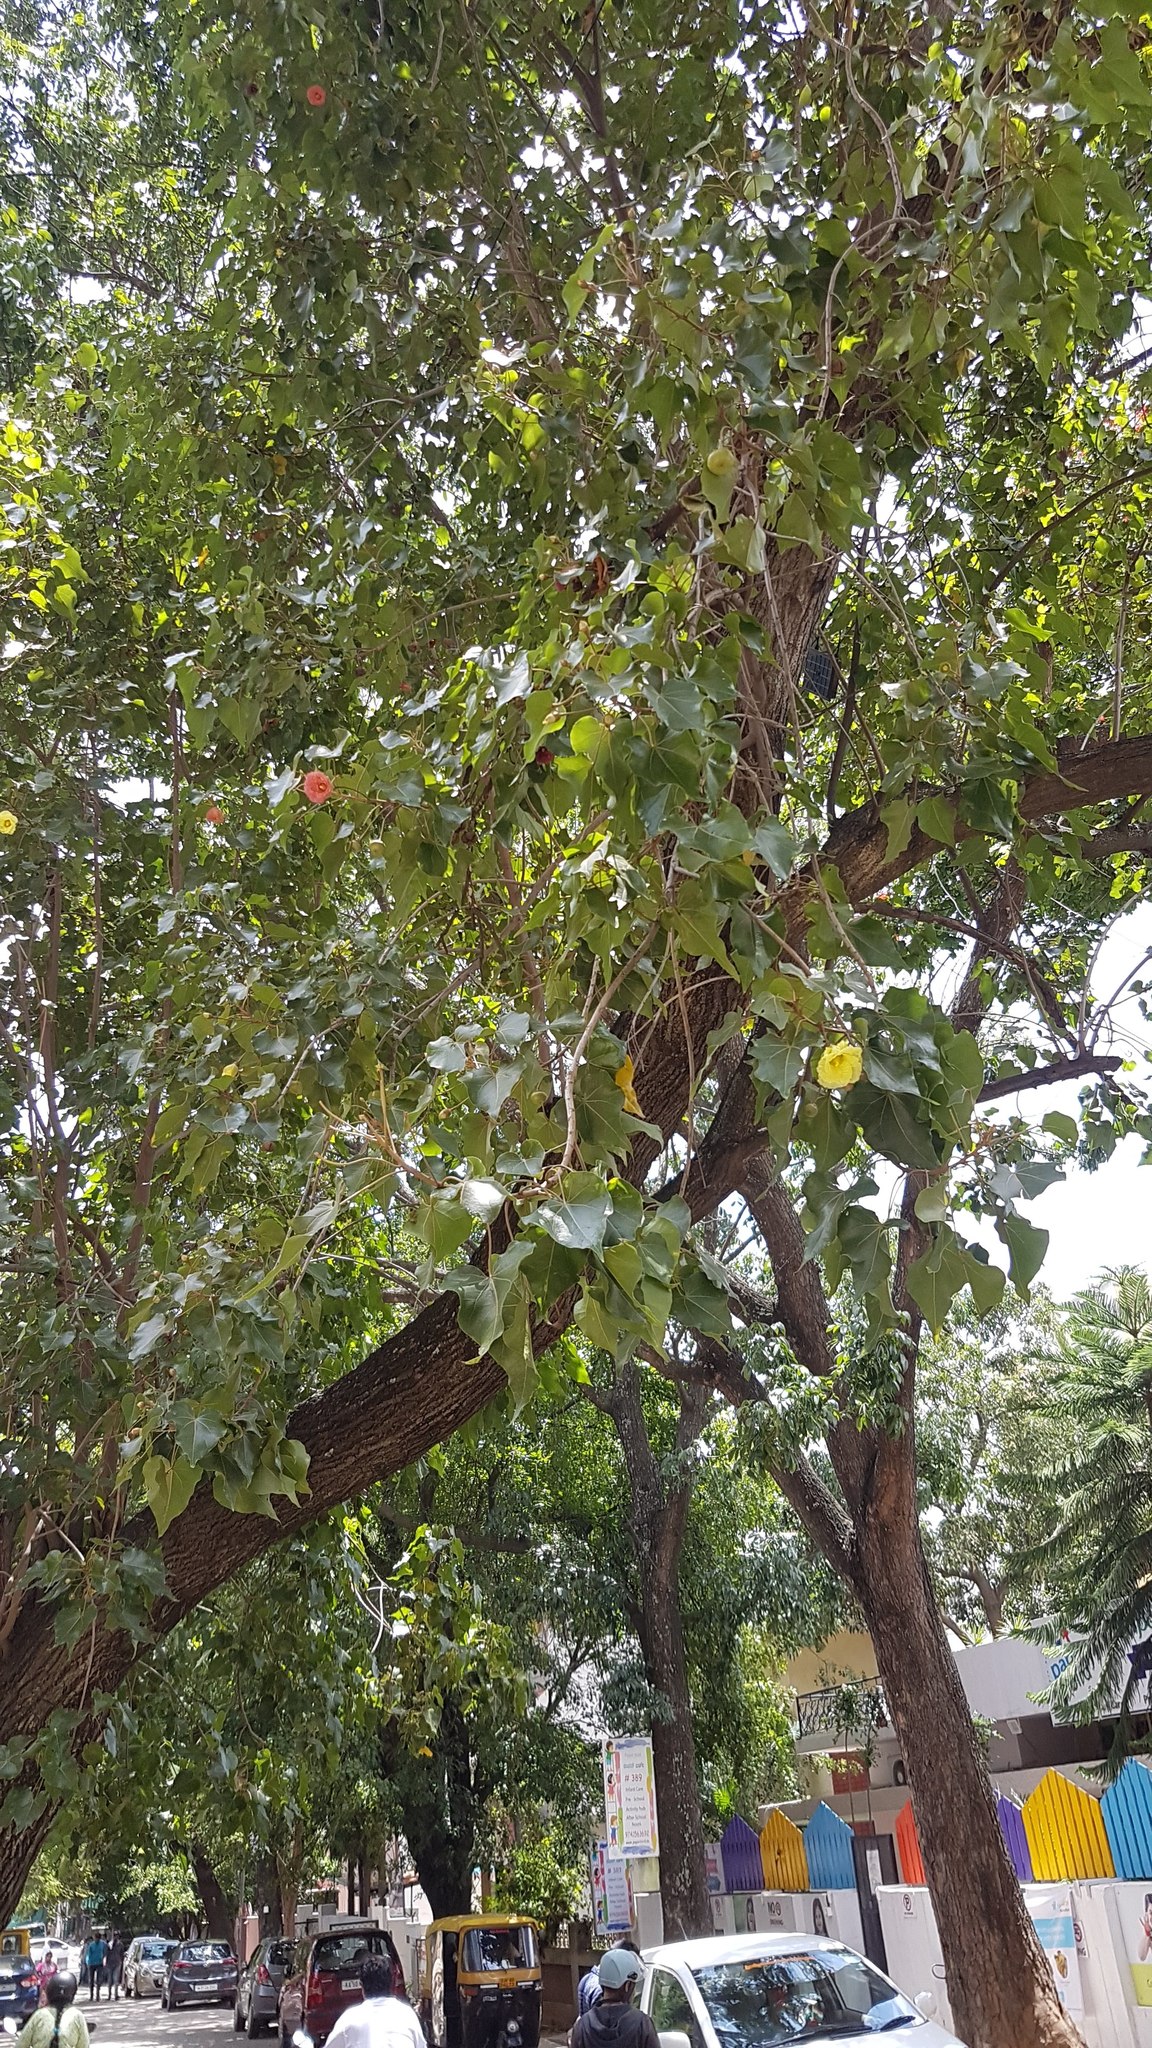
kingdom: Plantae
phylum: Tracheophyta
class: Magnoliopsida
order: Malvales
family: Malvaceae
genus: Thespesia
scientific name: Thespesia populnea
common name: Seaside mahoe
